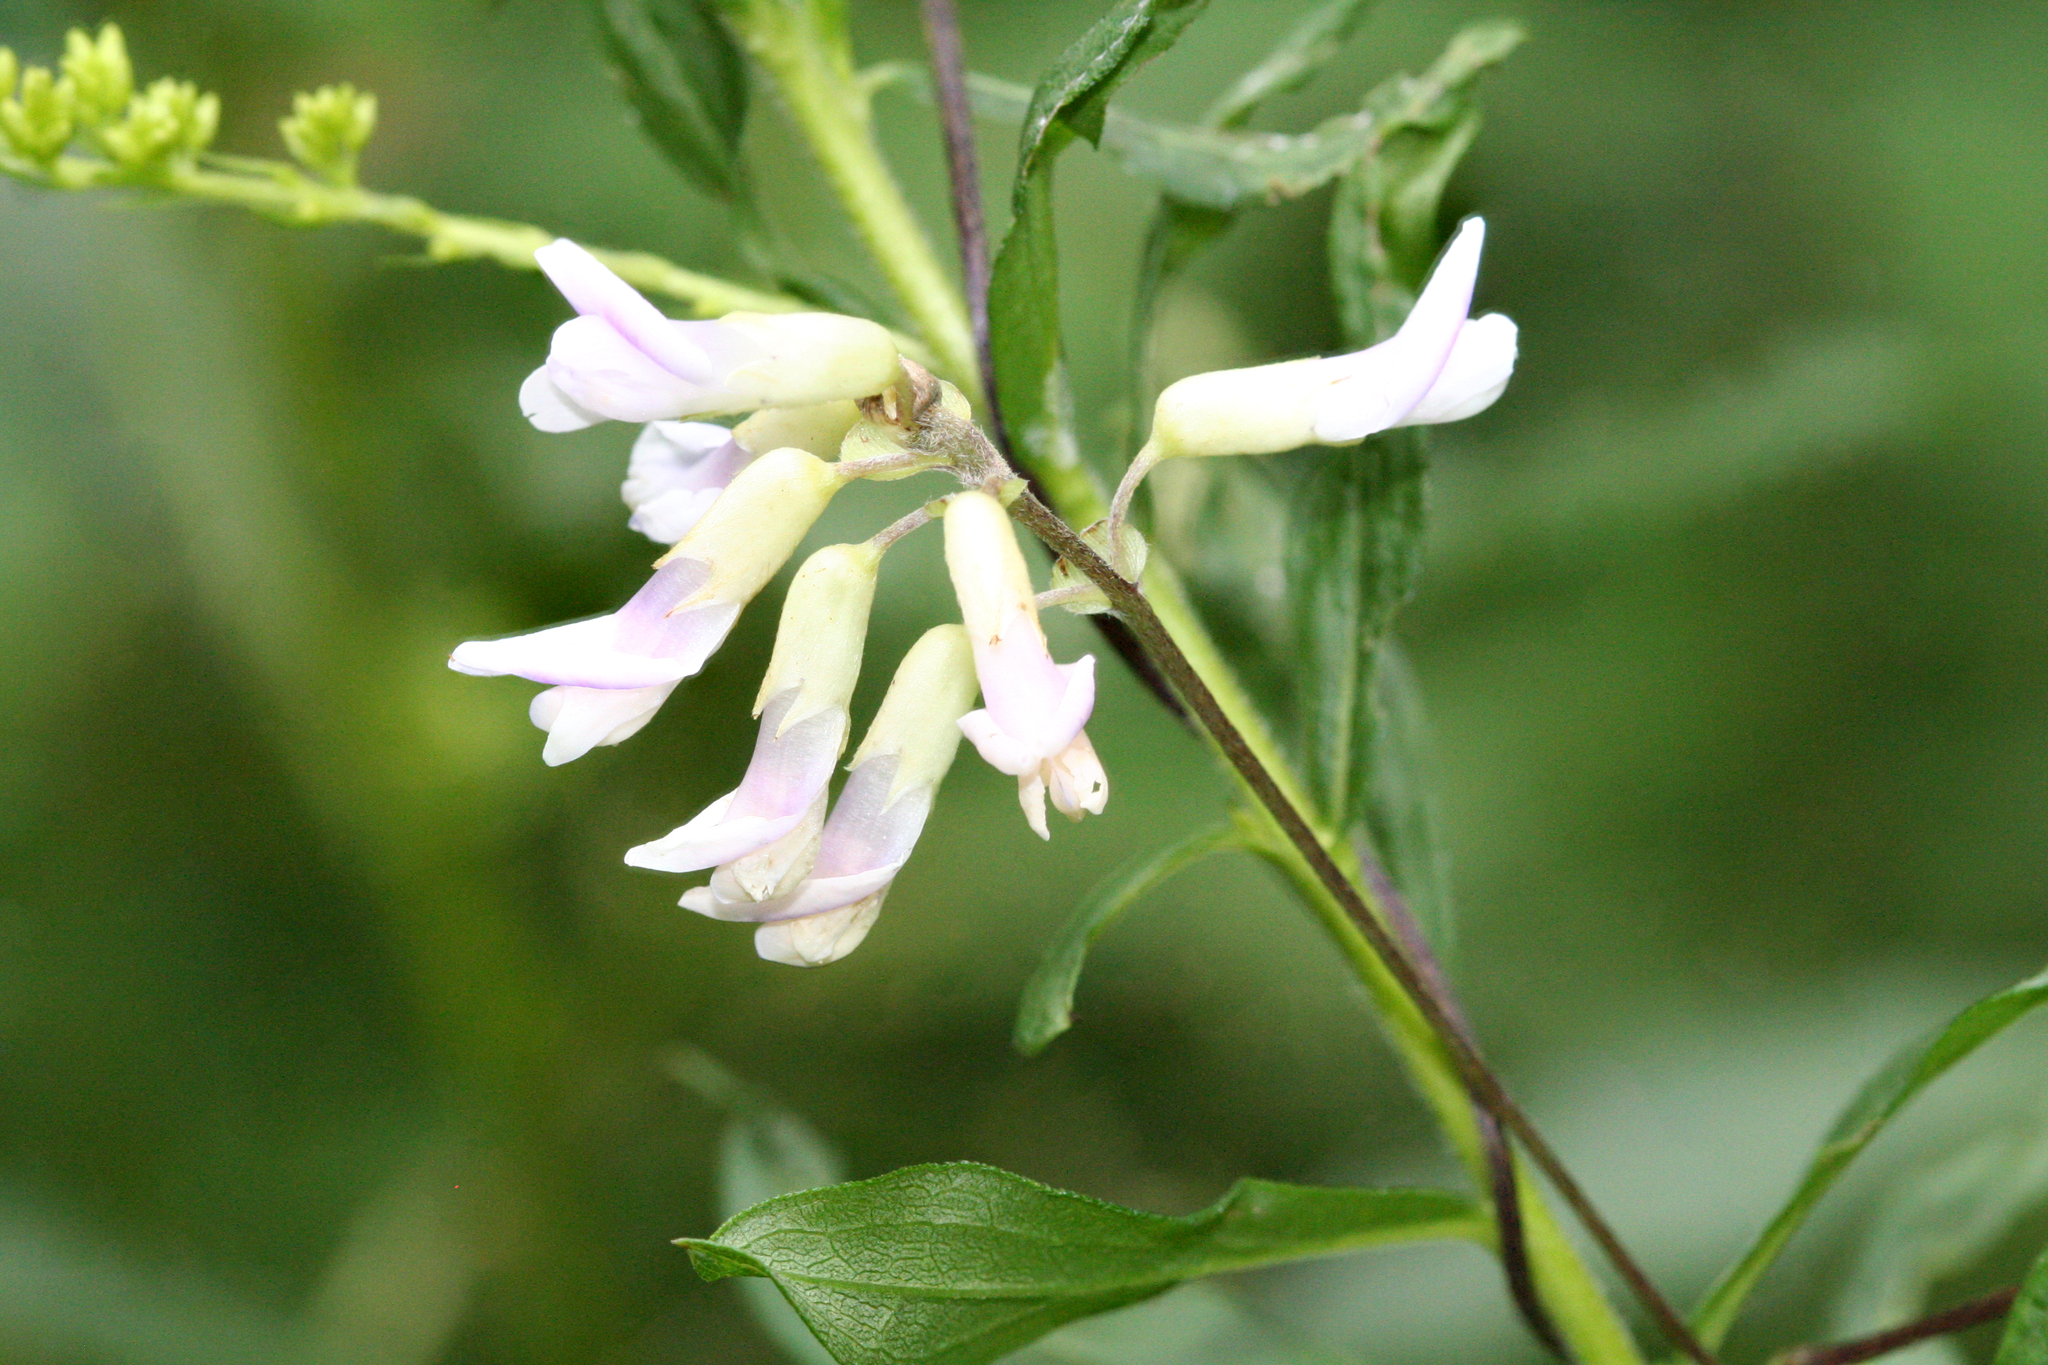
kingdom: Plantae
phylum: Tracheophyta
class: Magnoliopsida
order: Fabales
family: Fabaceae
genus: Amphicarpaea
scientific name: Amphicarpaea bracteata
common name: American hog peanut
